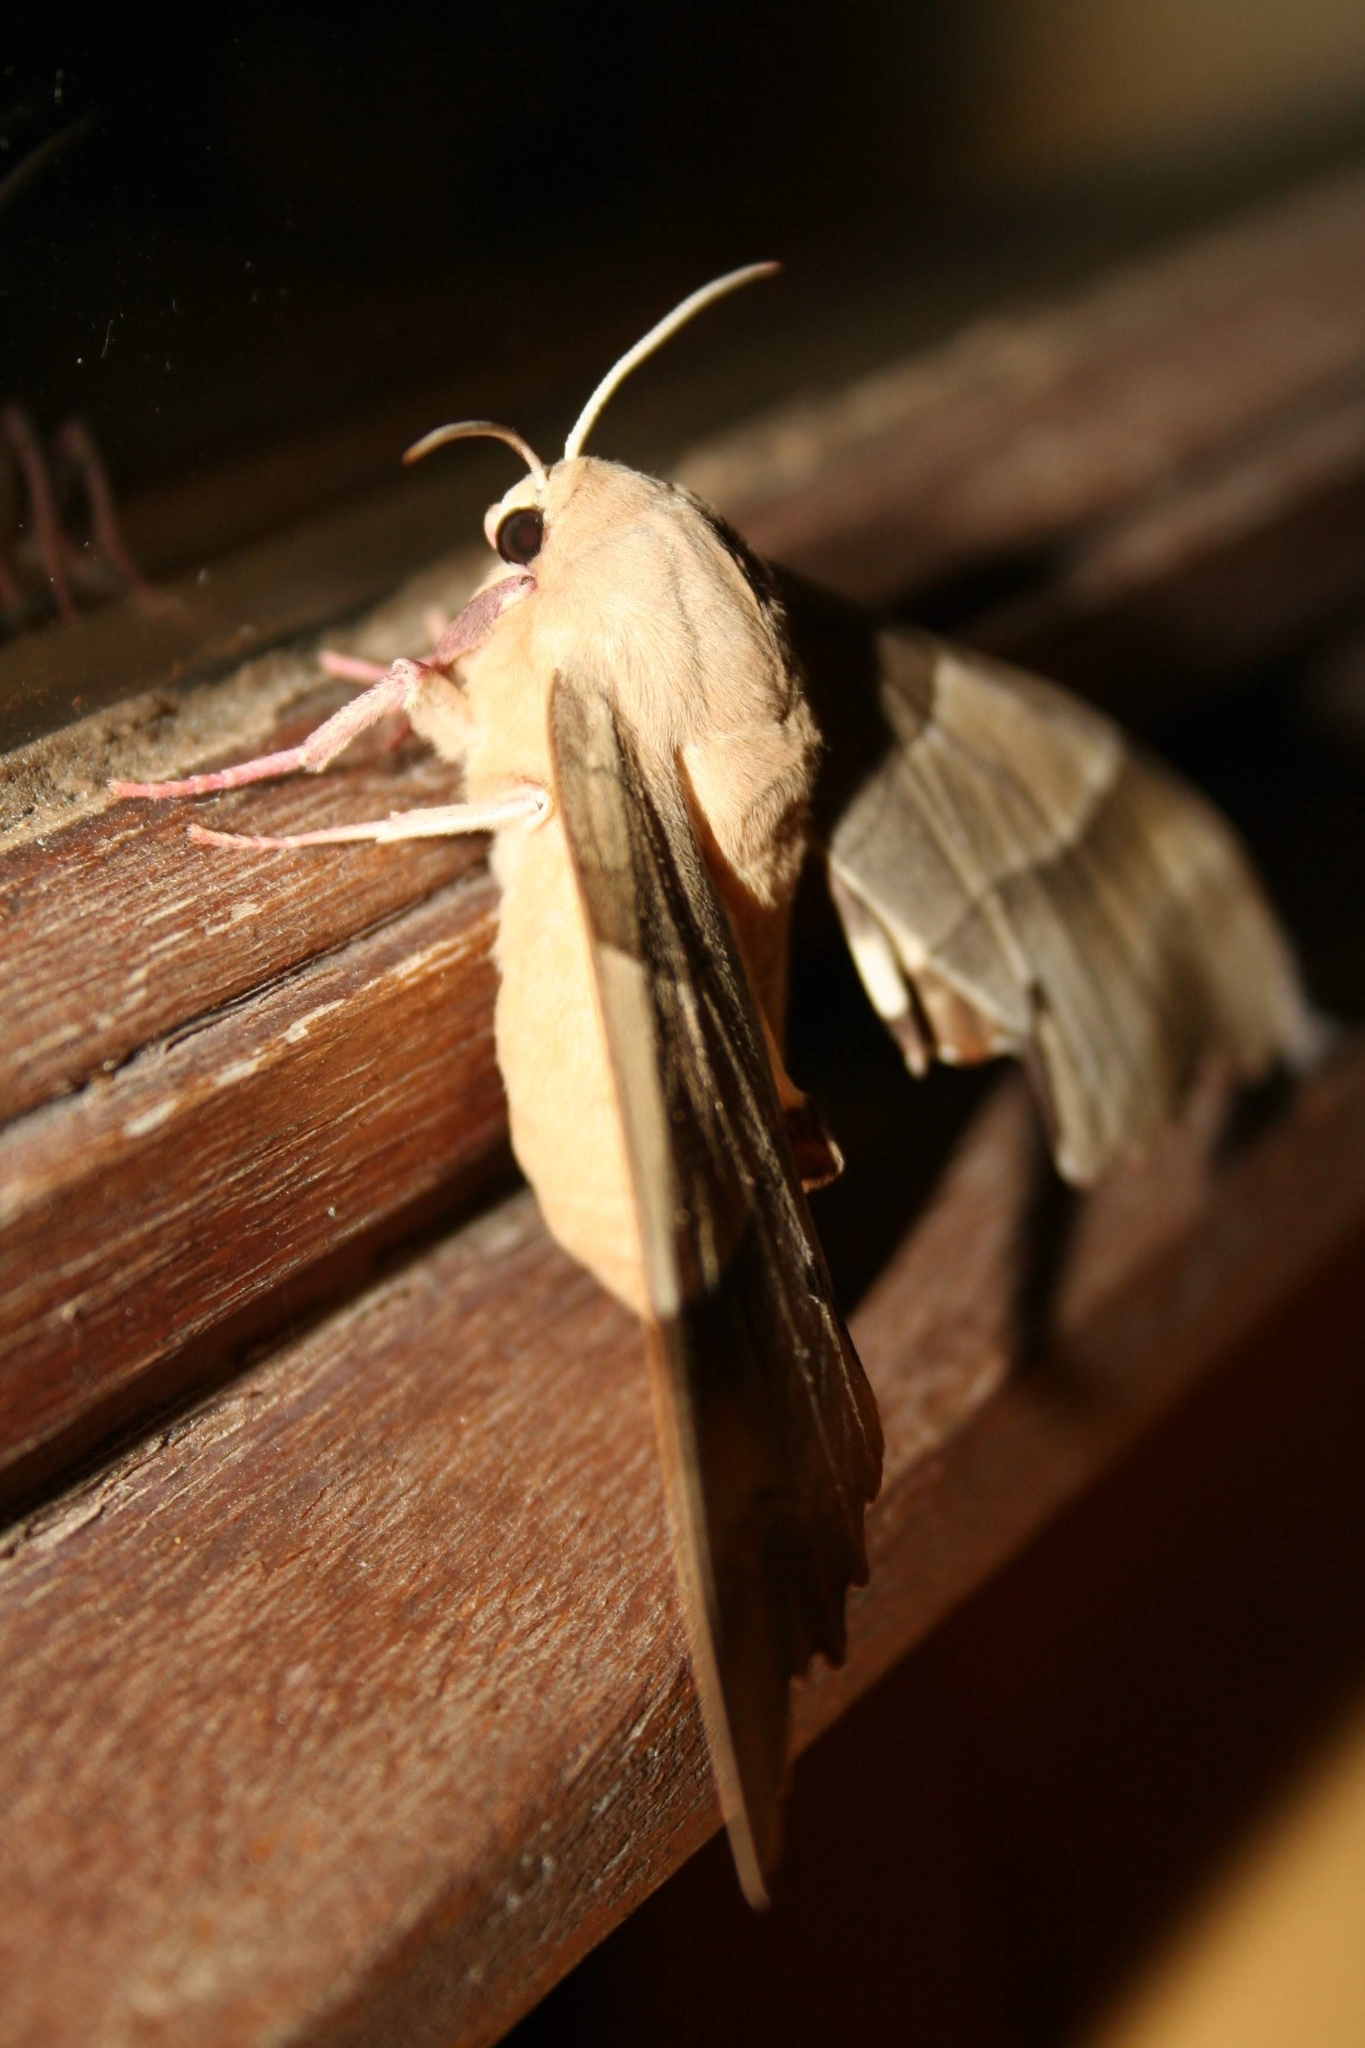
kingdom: Animalia
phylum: Arthropoda
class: Insecta
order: Lepidoptera
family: Sphingidae
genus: Marumba
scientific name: Marumba quercus
